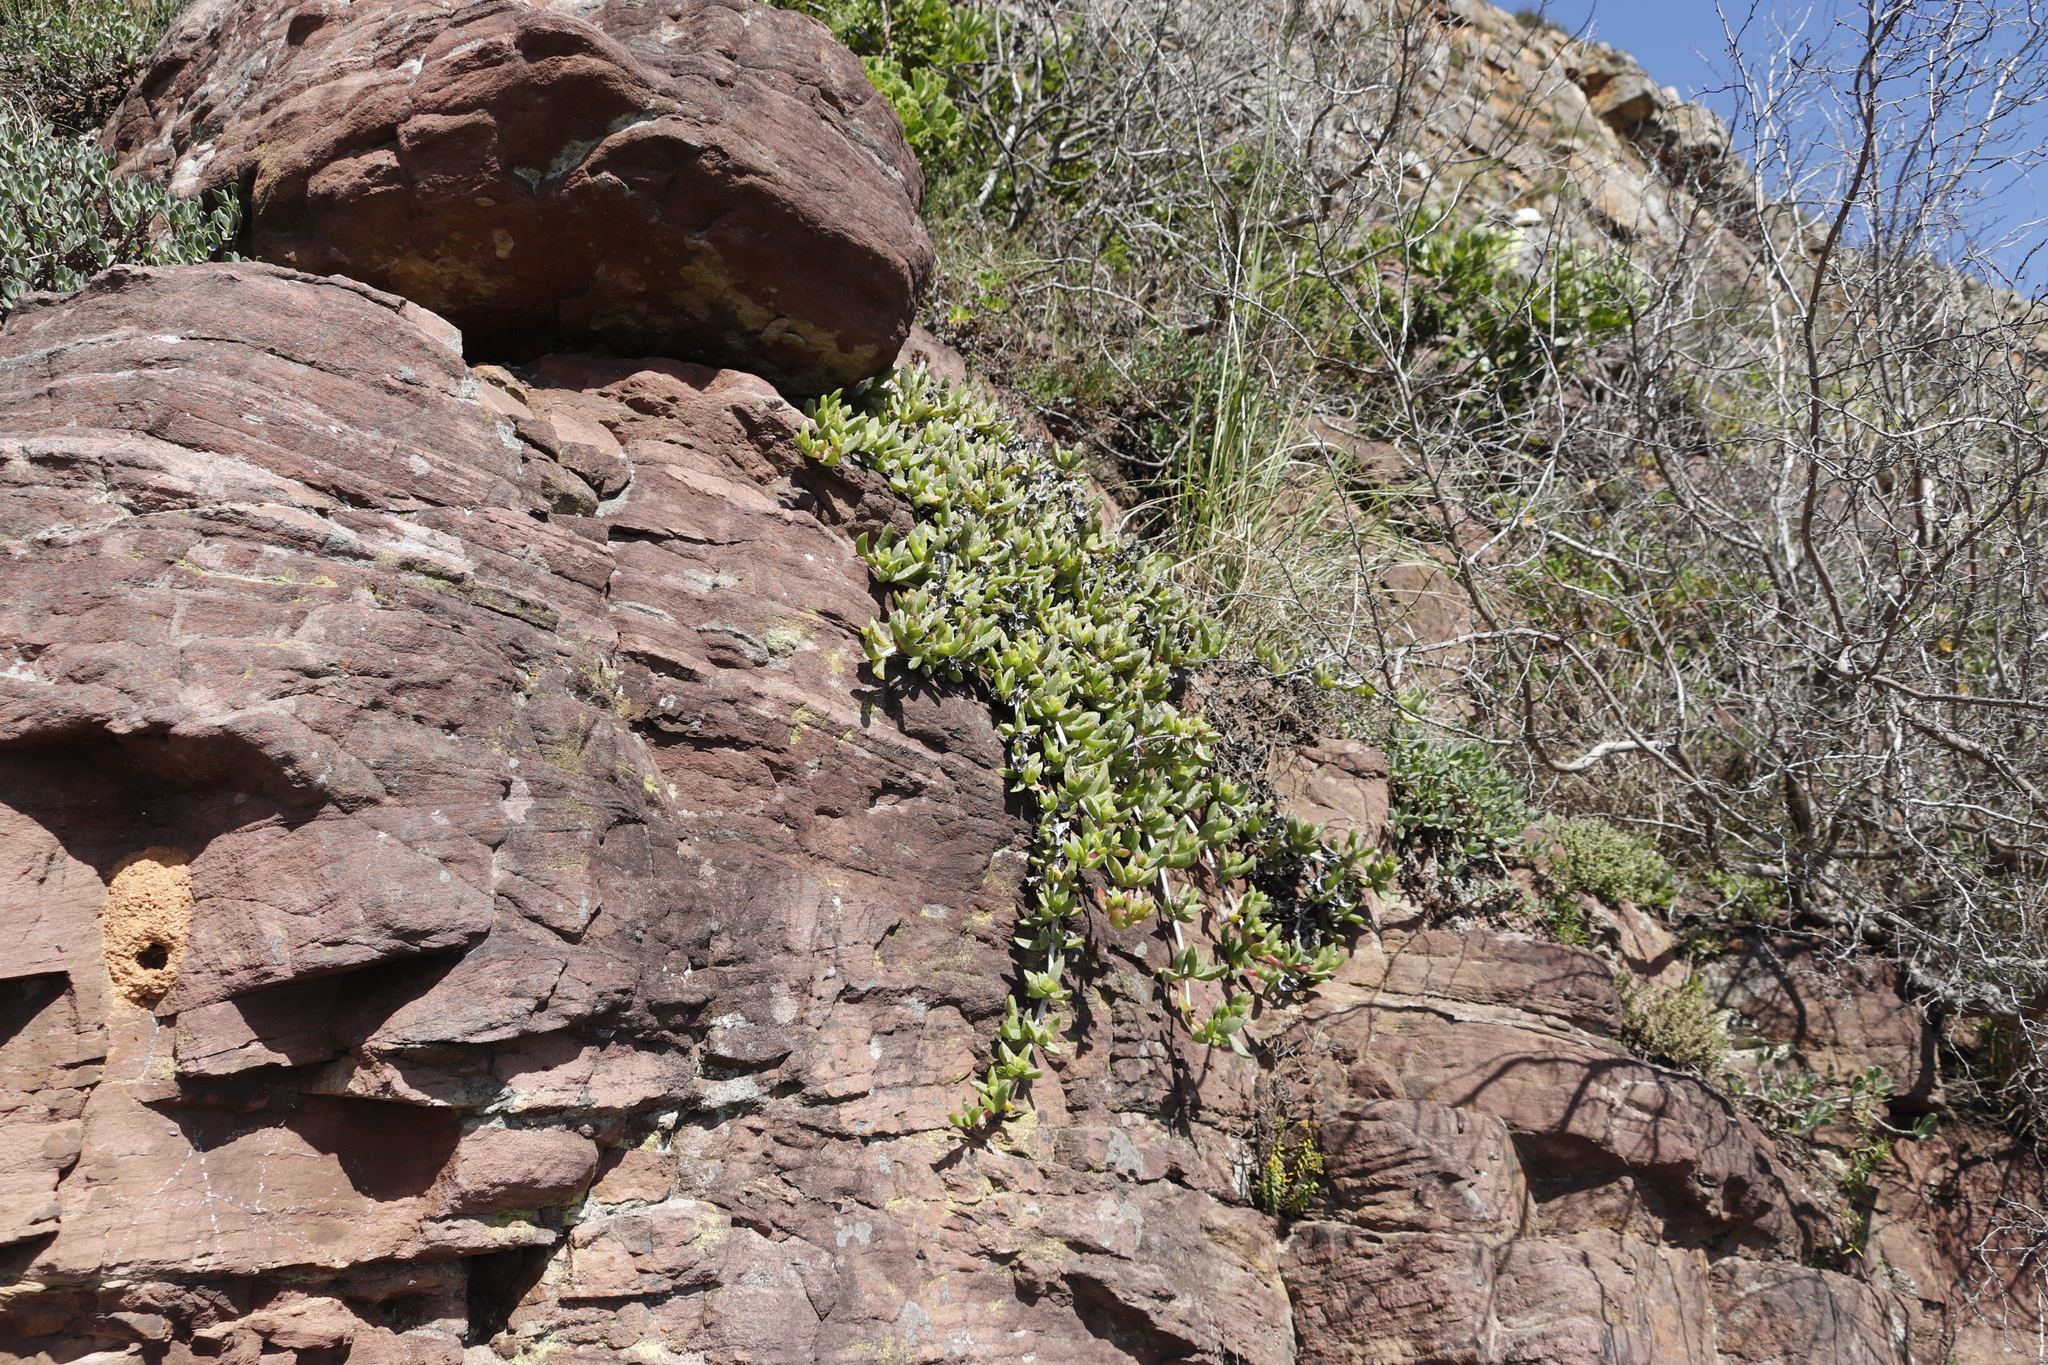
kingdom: Plantae
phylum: Tracheophyta
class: Magnoliopsida
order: Caryophyllales
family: Aizoaceae
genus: Ruschia
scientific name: Ruschia rubricaulis
